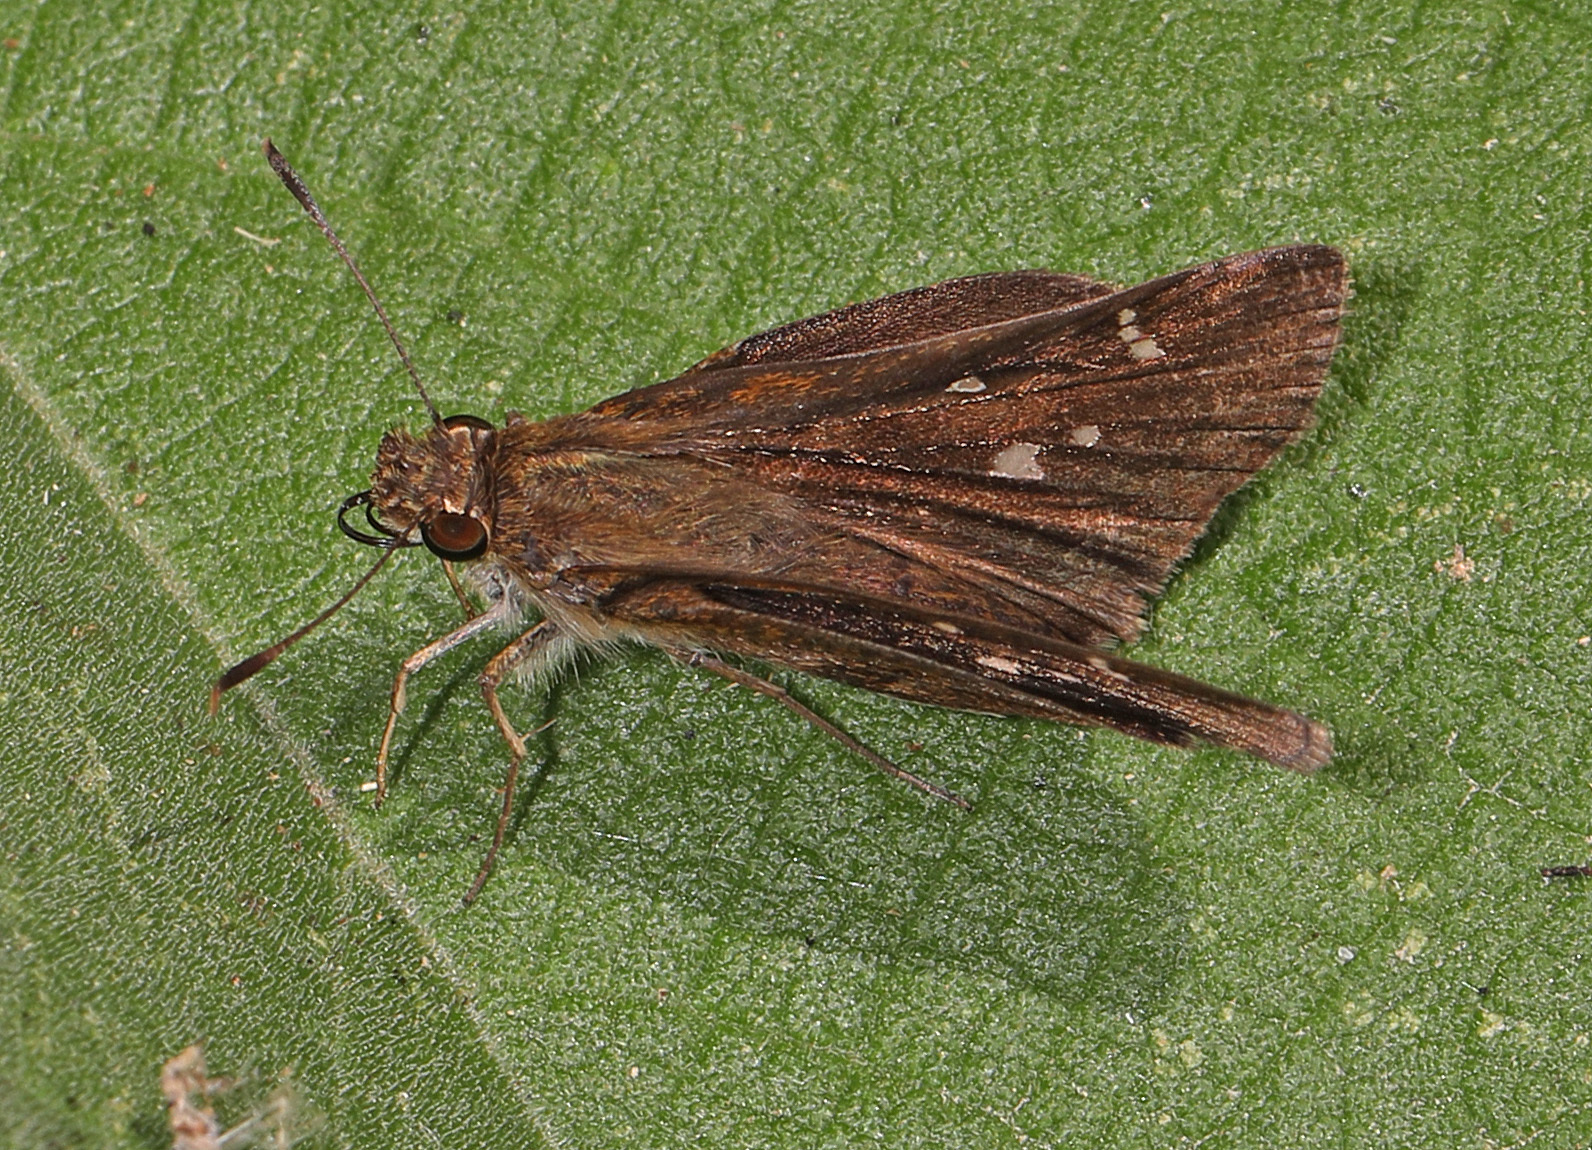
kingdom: Animalia
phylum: Arthropoda
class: Insecta
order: Lepidoptera
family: Hesperiidae
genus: Lerema
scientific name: Lerema accius
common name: Clouded skipper
